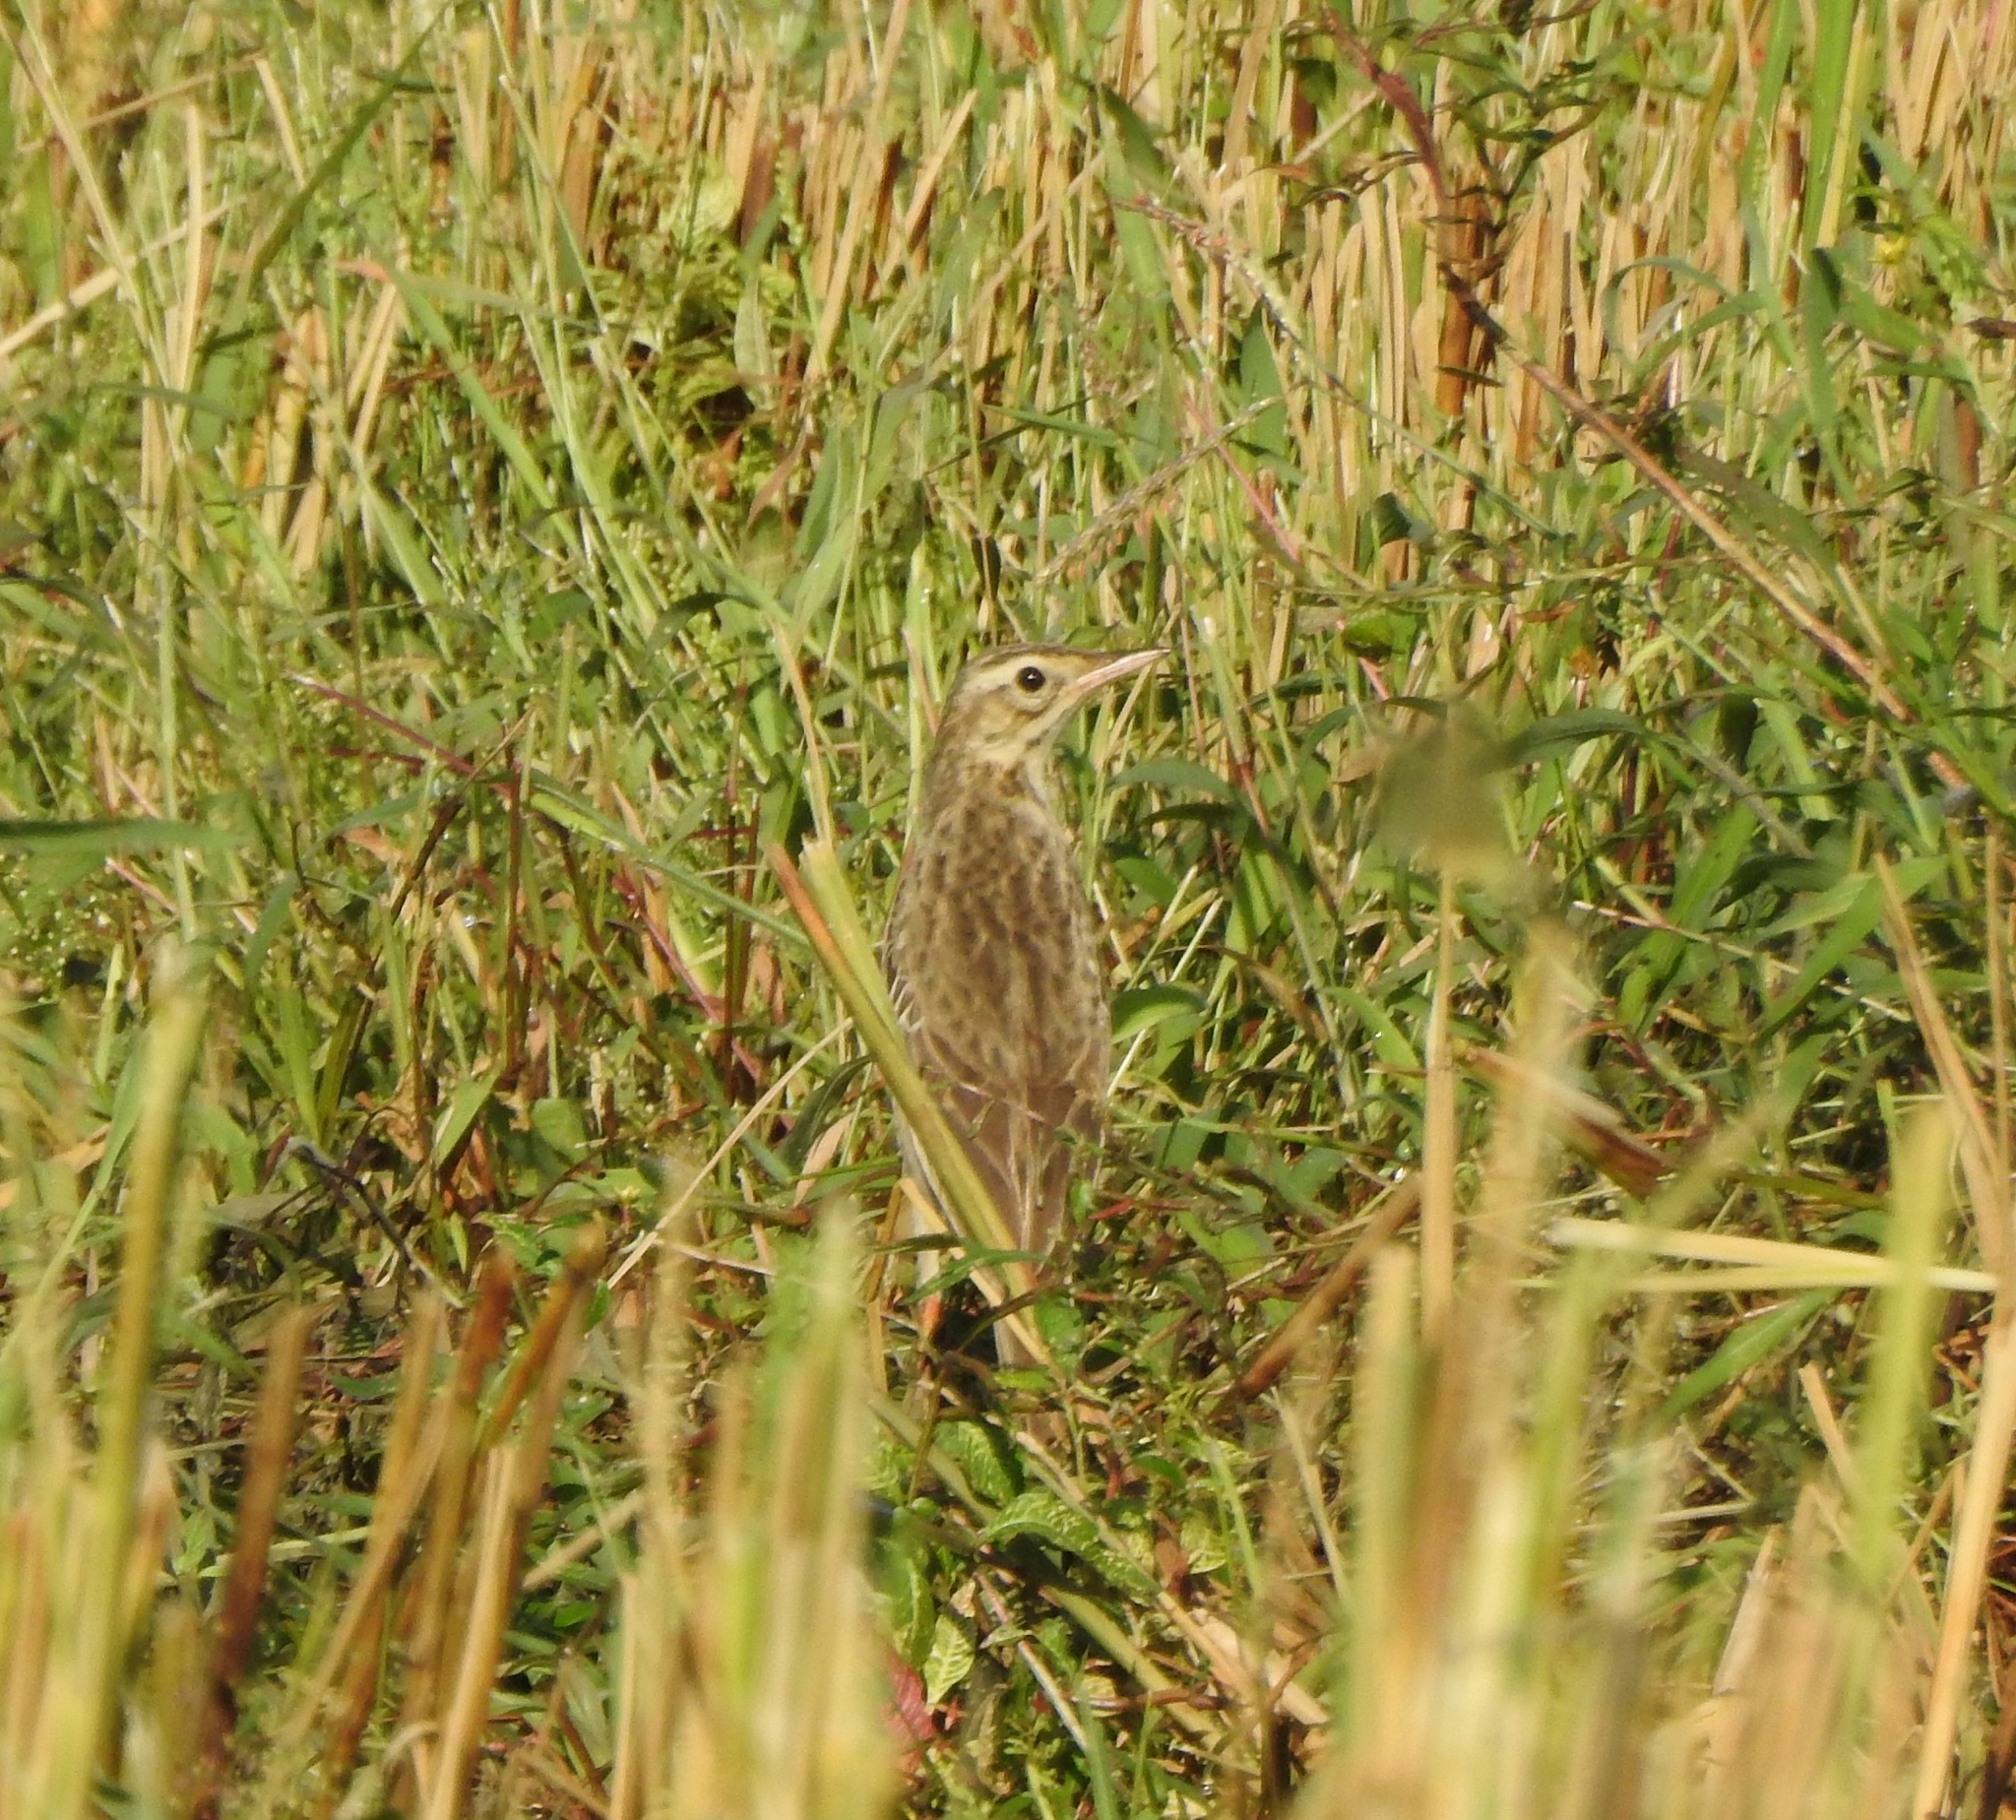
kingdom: Animalia
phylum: Chordata
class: Aves
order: Passeriformes
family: Motacillidae
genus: Anthus
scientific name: Anthus richardi
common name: Richard's pipit
